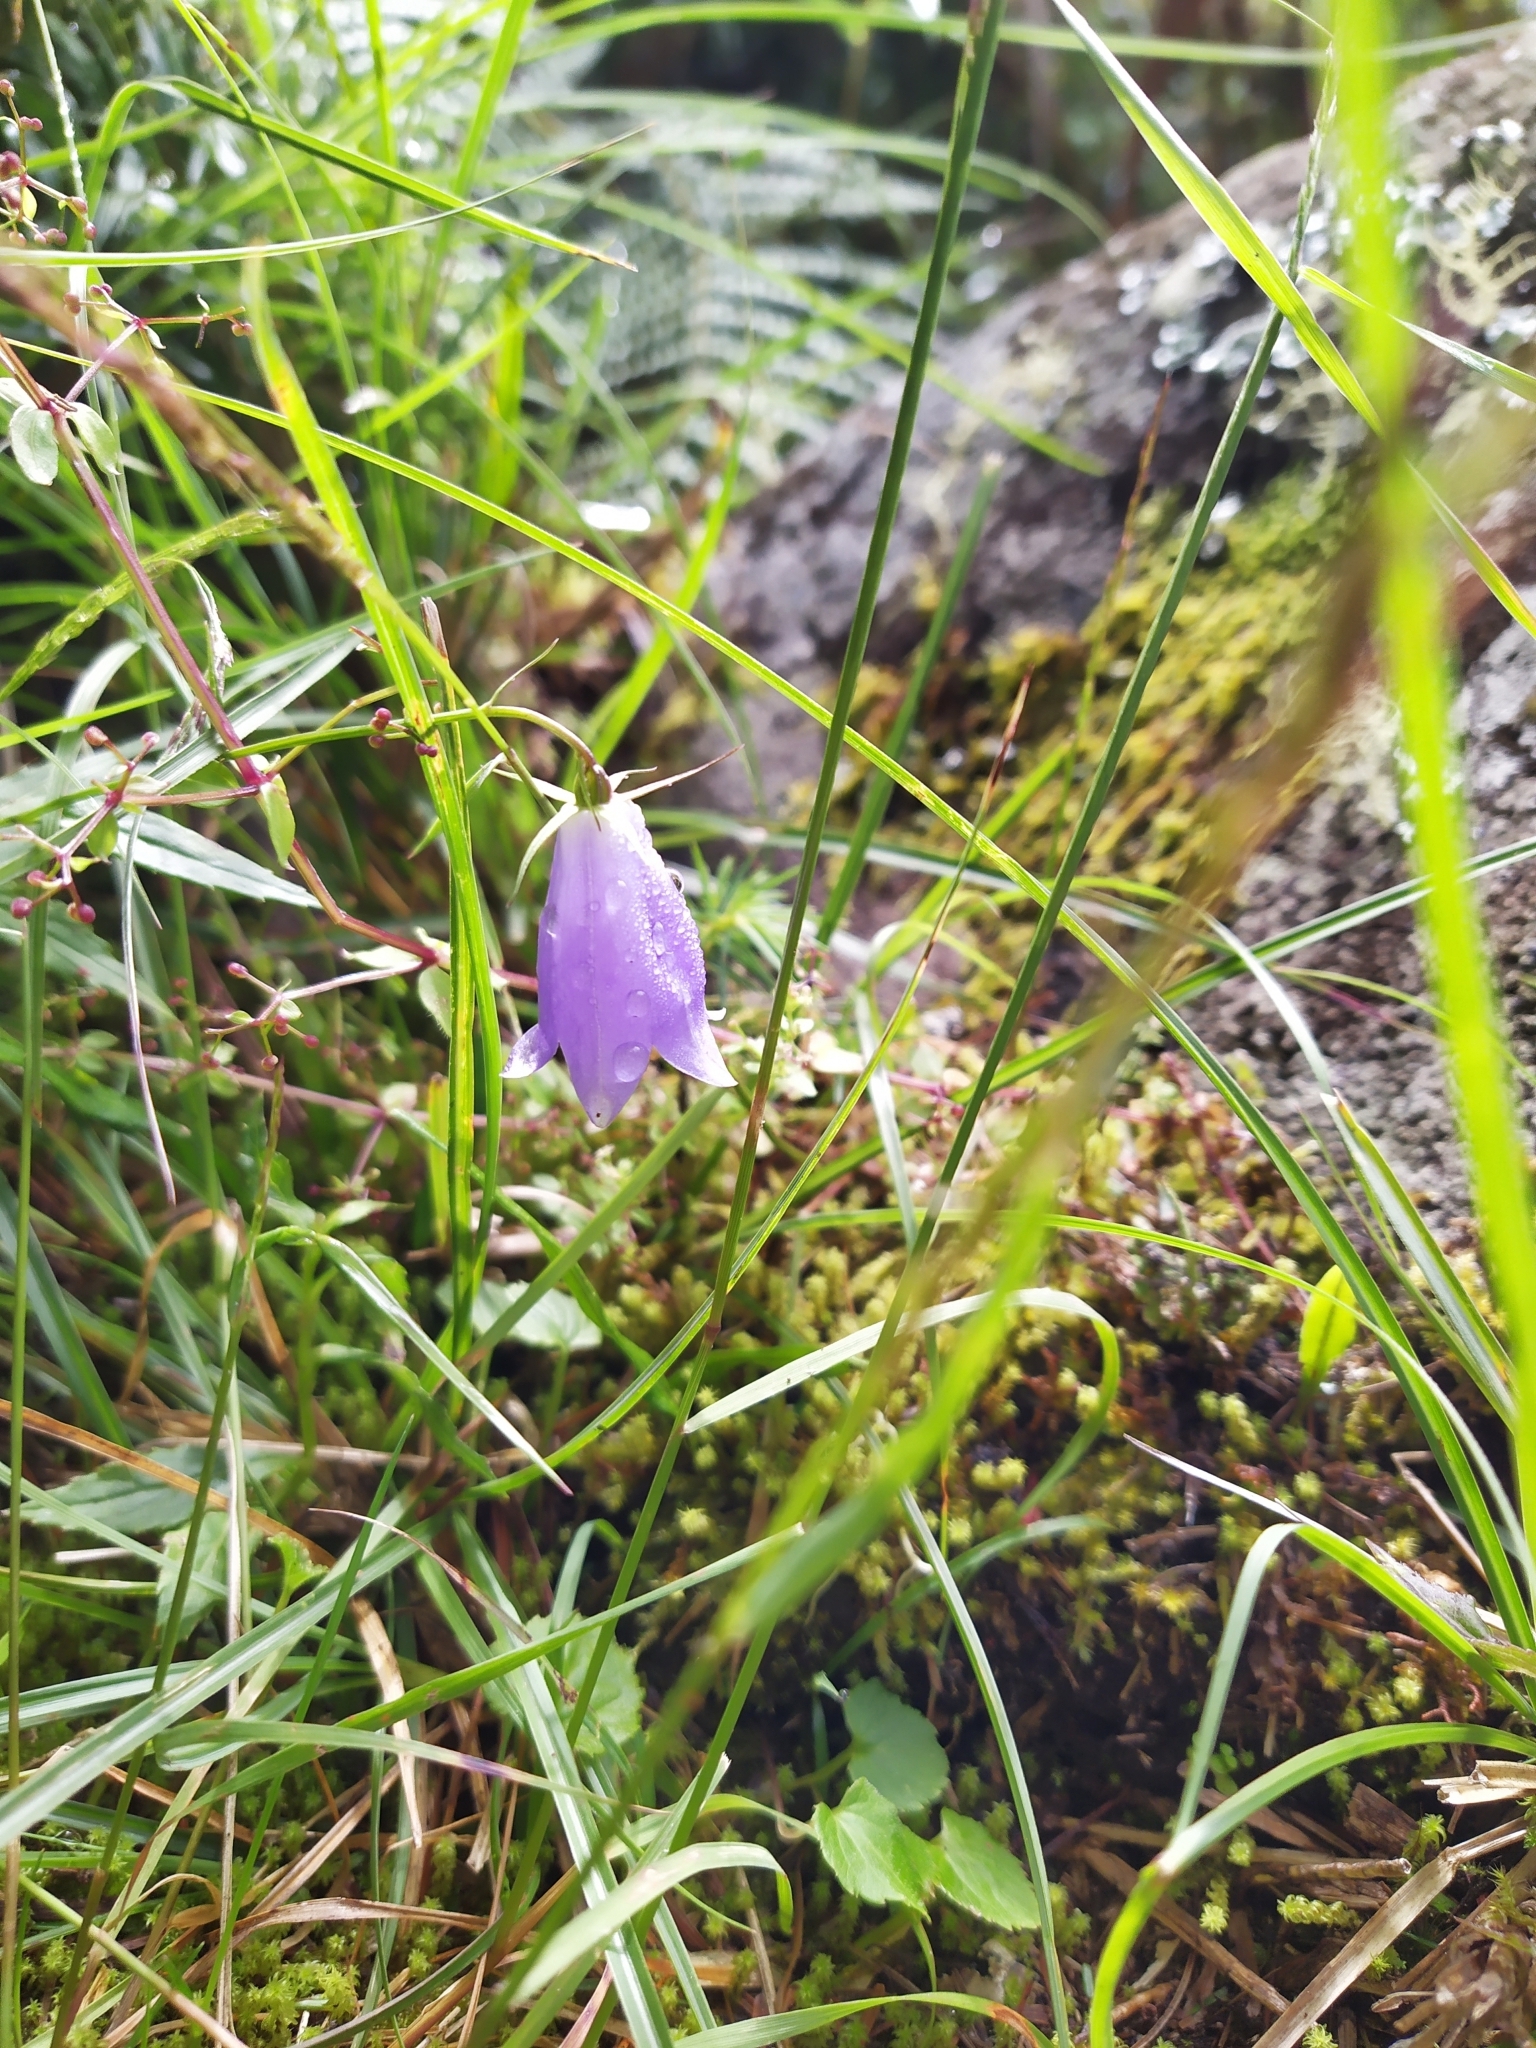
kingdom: Plantae
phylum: Tracheophyta
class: Magnoliopsida
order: Asterales
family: Campanulaceae
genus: Adenophora
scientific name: Adenophora morrisonensis
